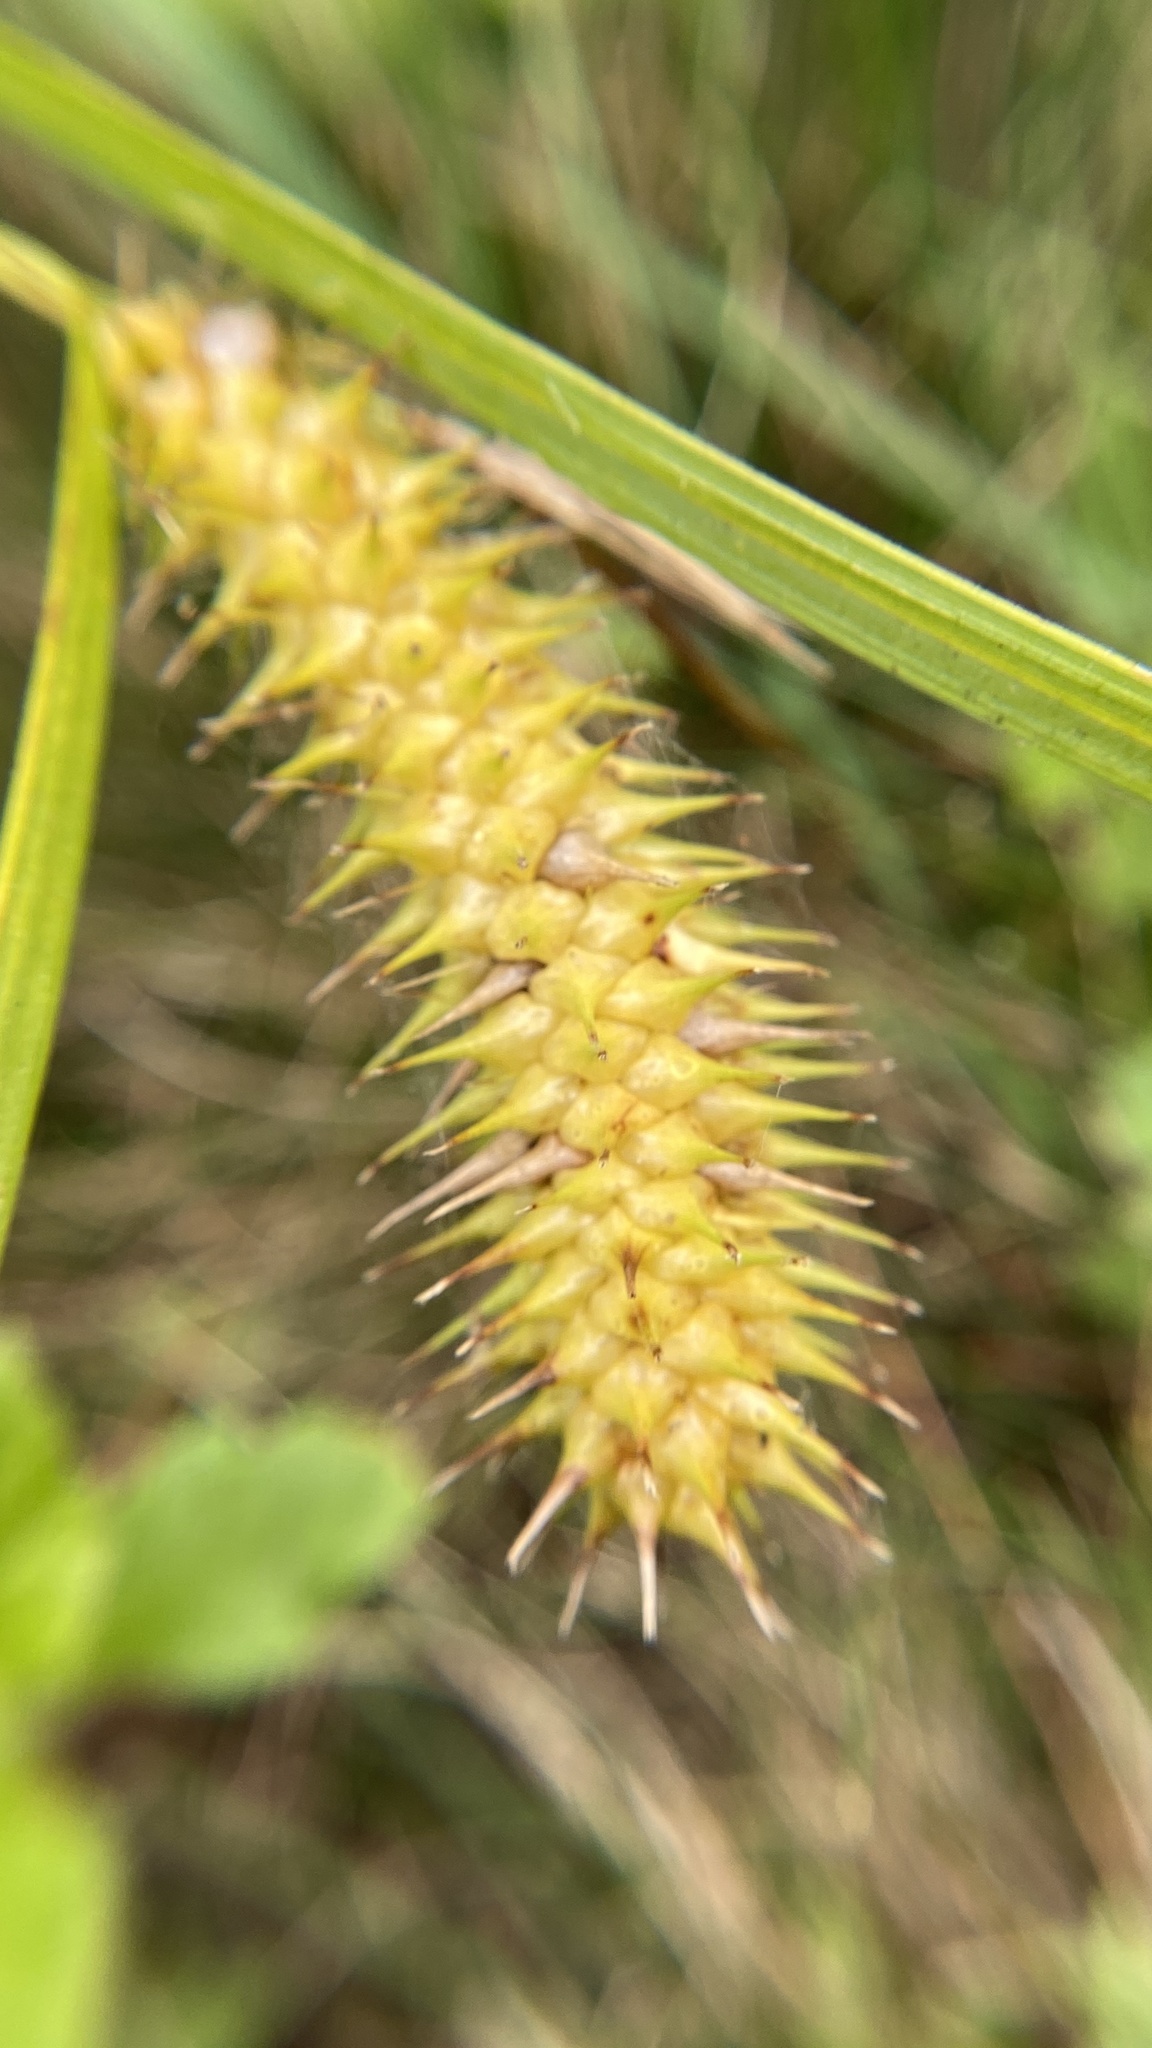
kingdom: Plantae
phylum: Tracheophyta
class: Liliopsida
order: Poales
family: Cyperaceae
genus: Carex
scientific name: Carex lurida
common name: Sallow sedge
